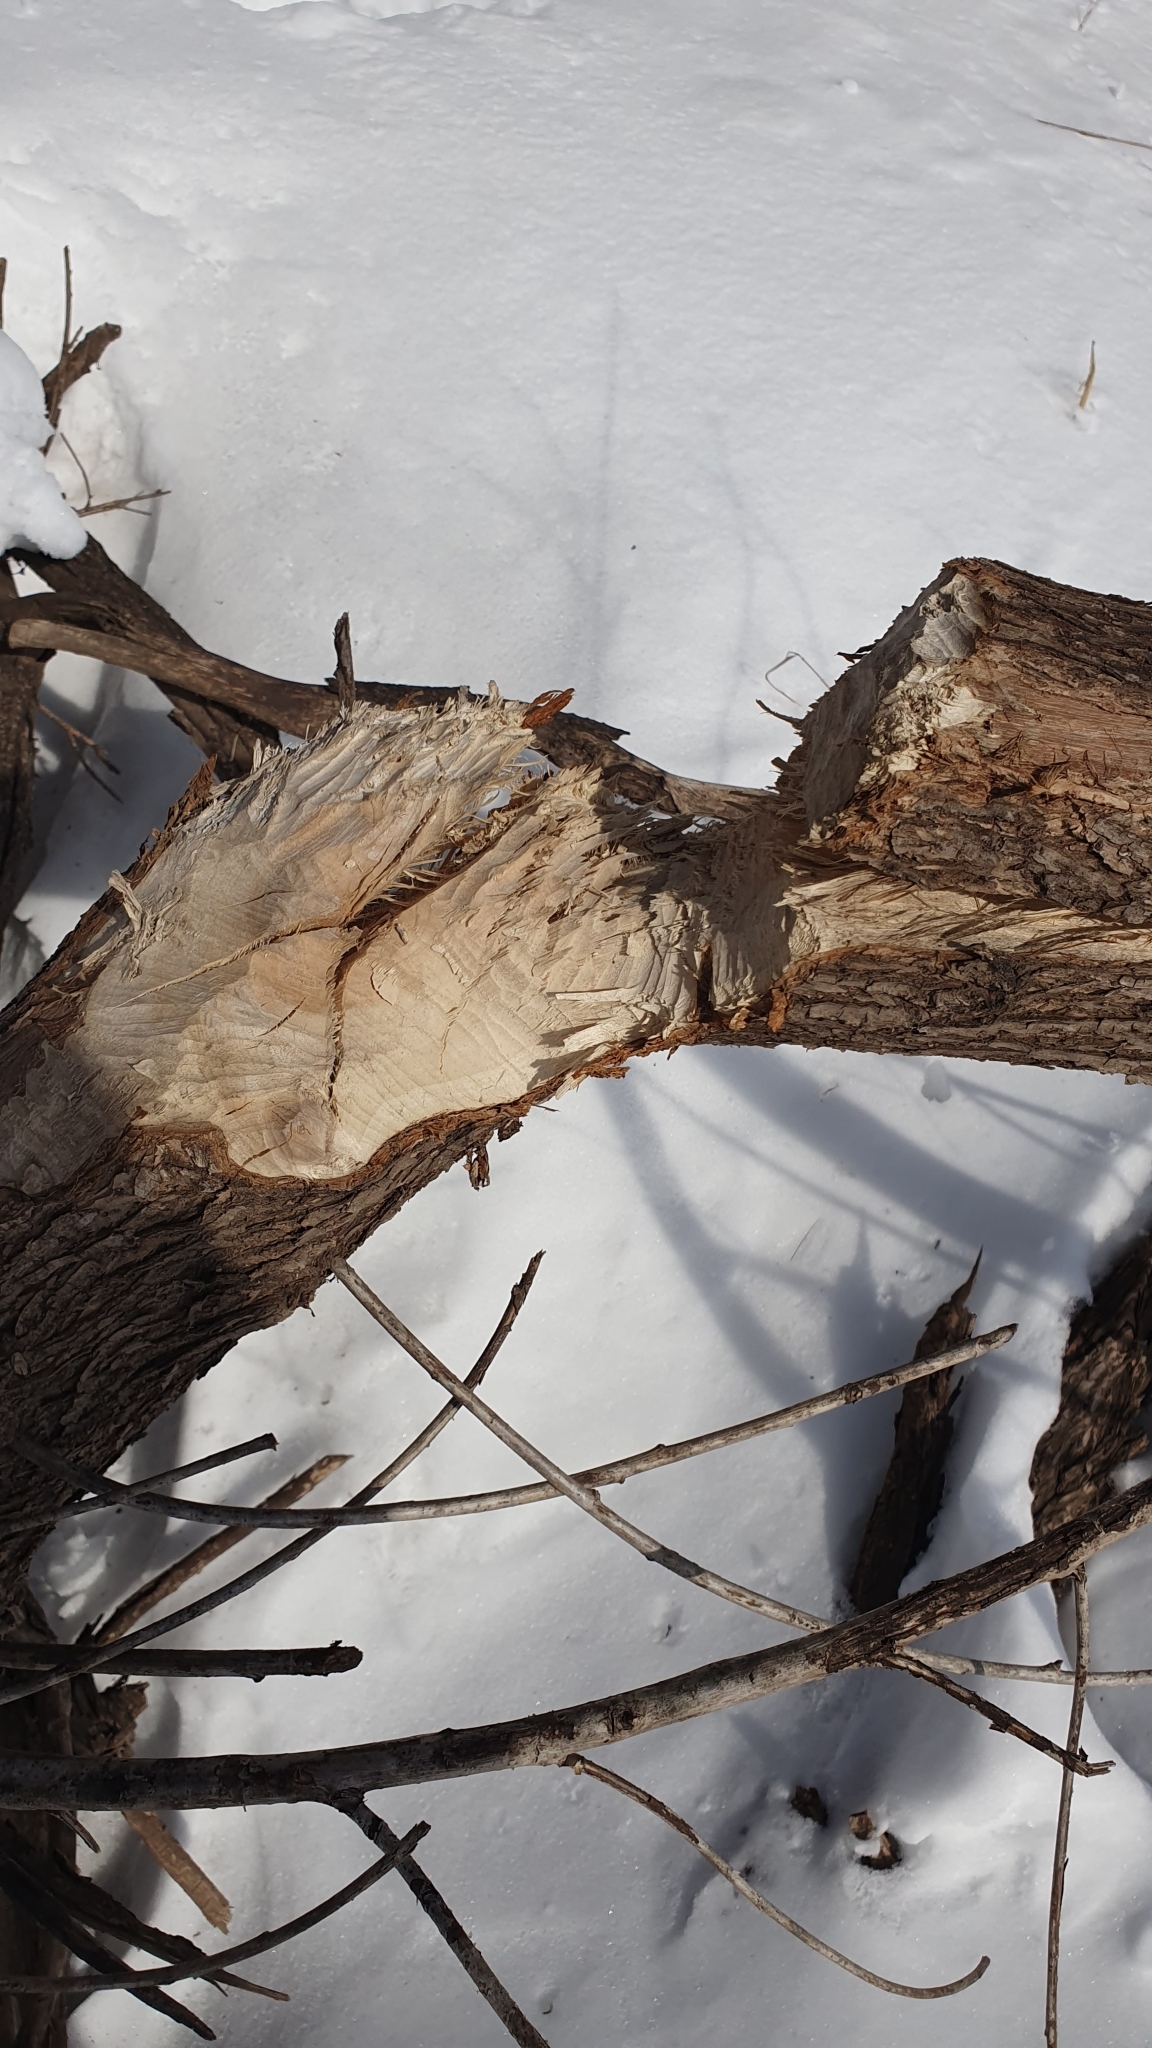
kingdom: Animalia
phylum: Chordata
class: Mammalia
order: Rodentia
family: Castoridae
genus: Castor
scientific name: Castor fiber
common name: Eurasian beaver
